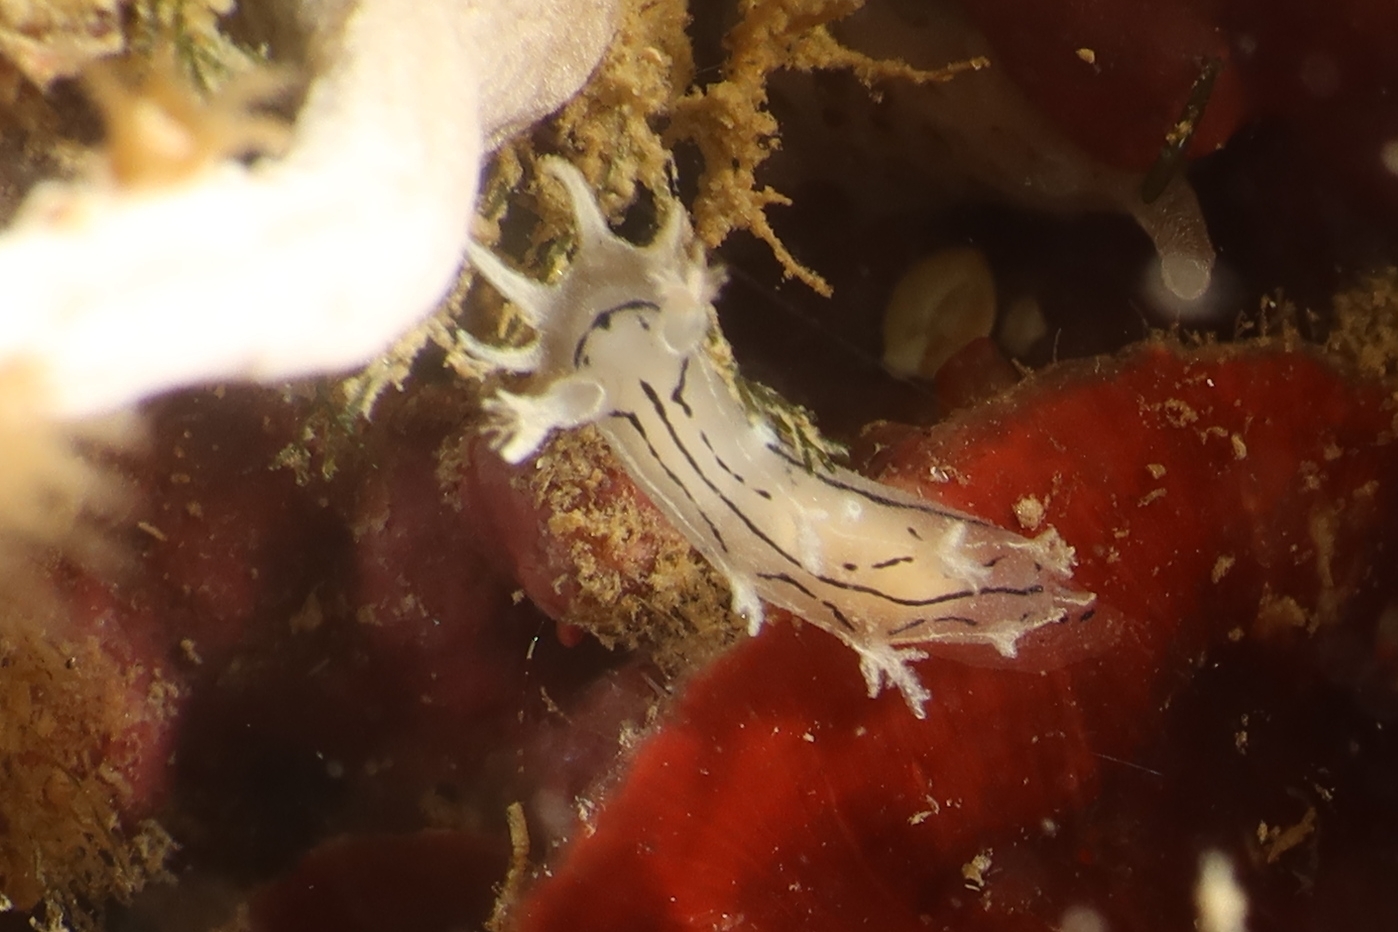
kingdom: Animalia
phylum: Mollusca
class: Gastropoda
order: Nudibranchia
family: Tritoniidae
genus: Duvaucelia
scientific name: Duvaucelia striata
